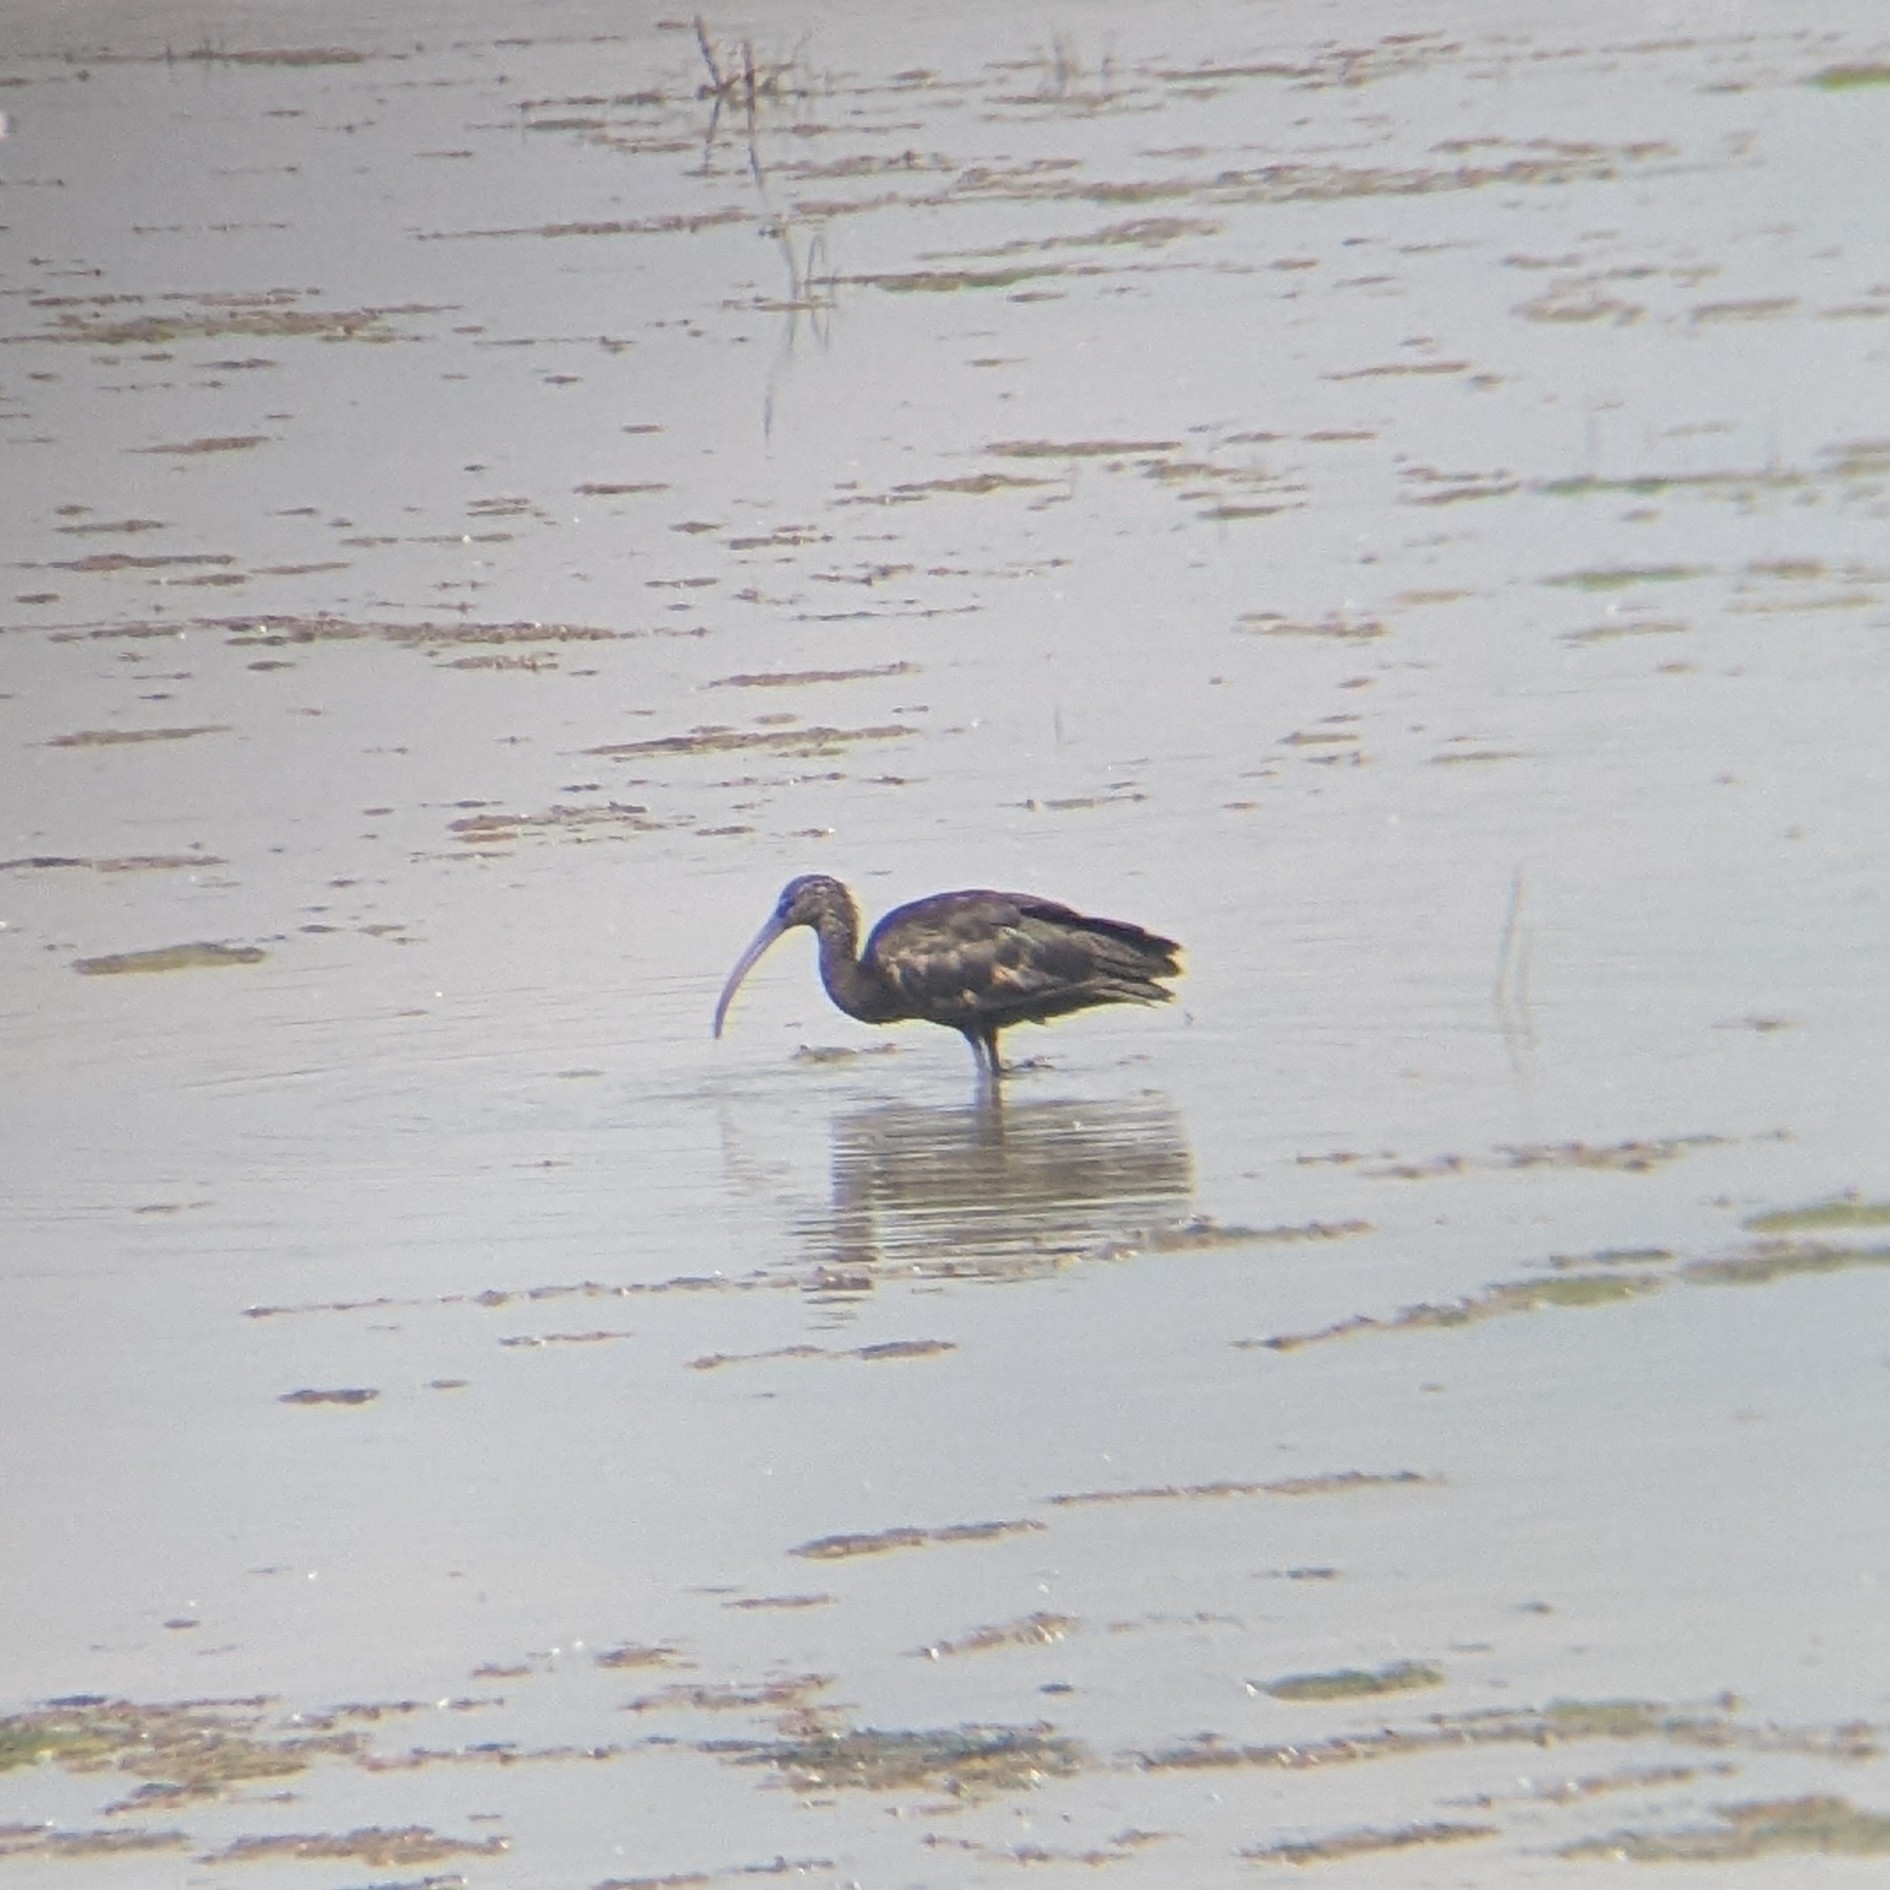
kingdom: Animalia
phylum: Chordata
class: Aves
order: Pelecaniformes
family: Threskiornithidae
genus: Plegadis
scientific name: Plegadis falcinellus
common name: Glossy ibis
